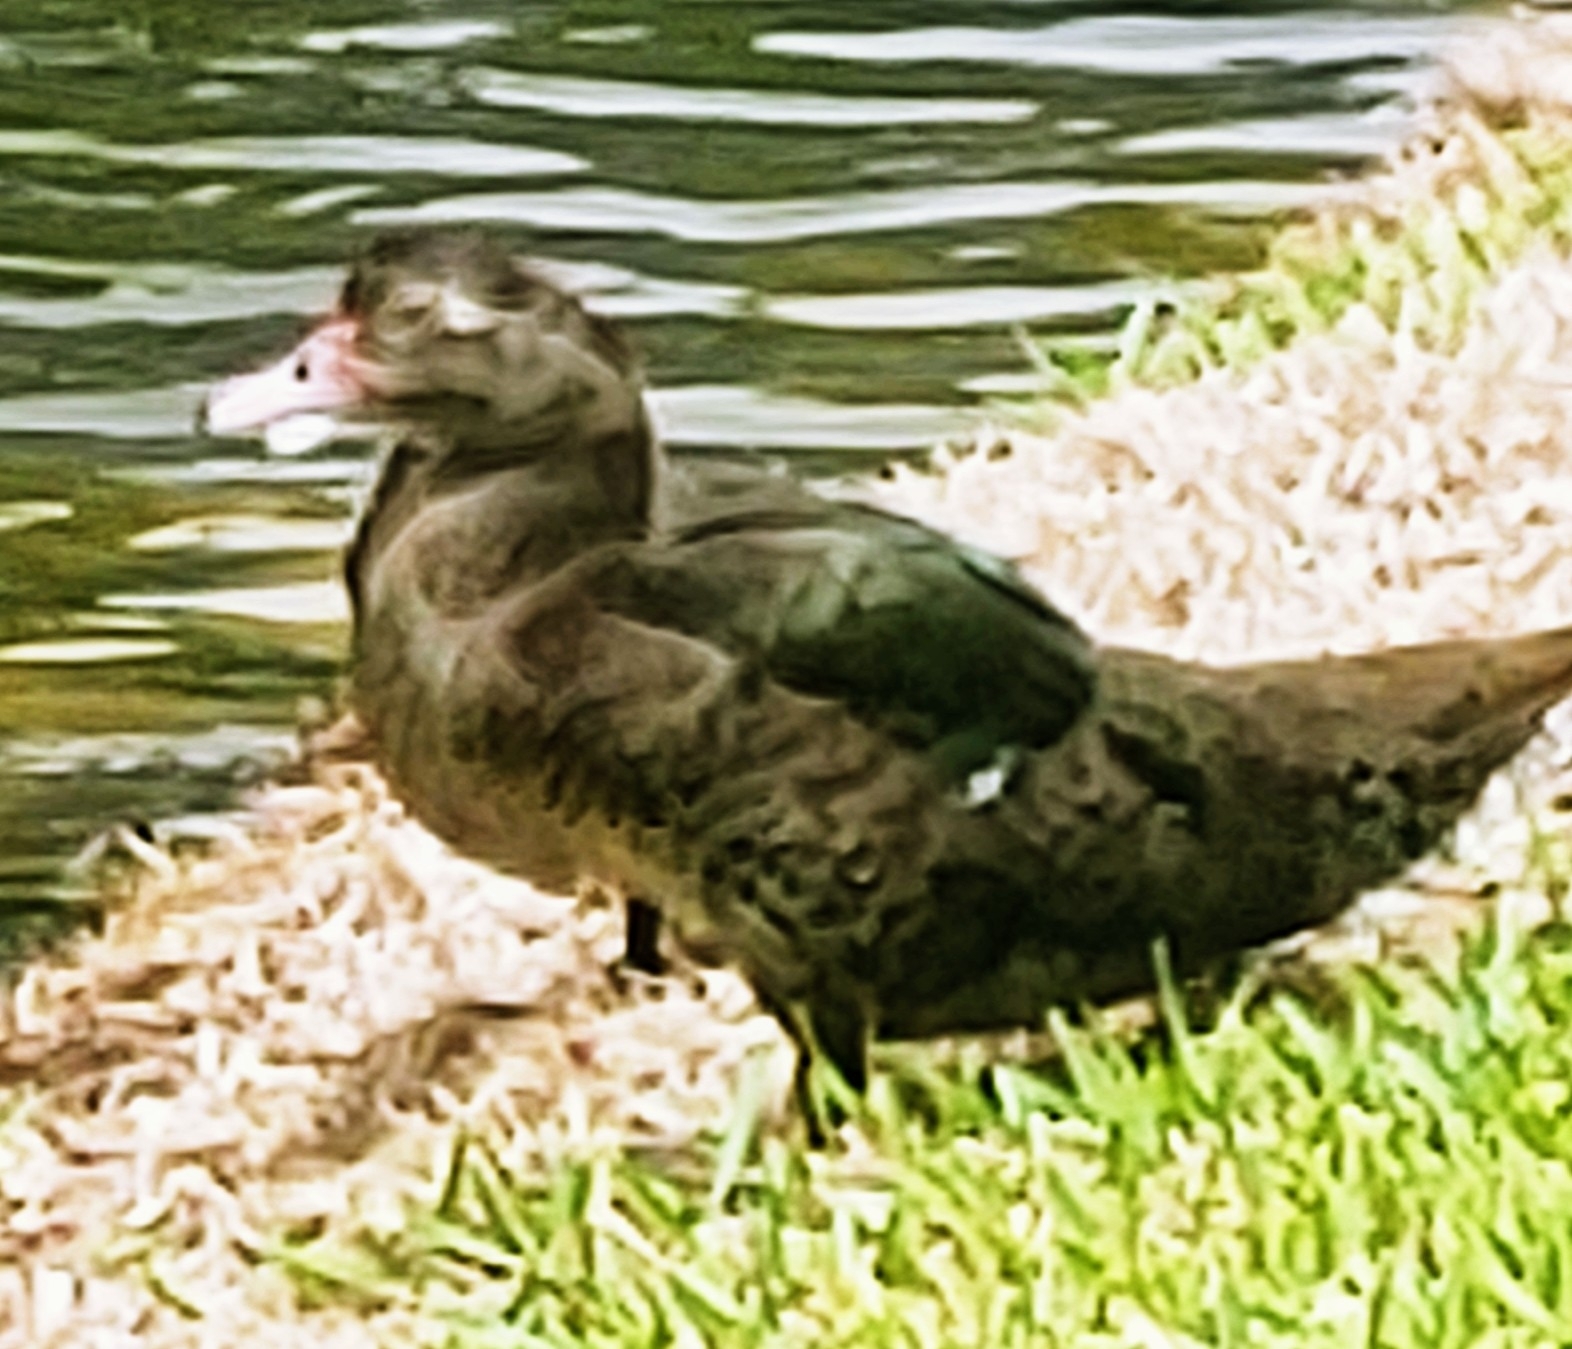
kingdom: Animalia
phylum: Chordata
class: Aves
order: Anseriformes
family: Anatidae
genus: Cairina
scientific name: Cairina moschata
